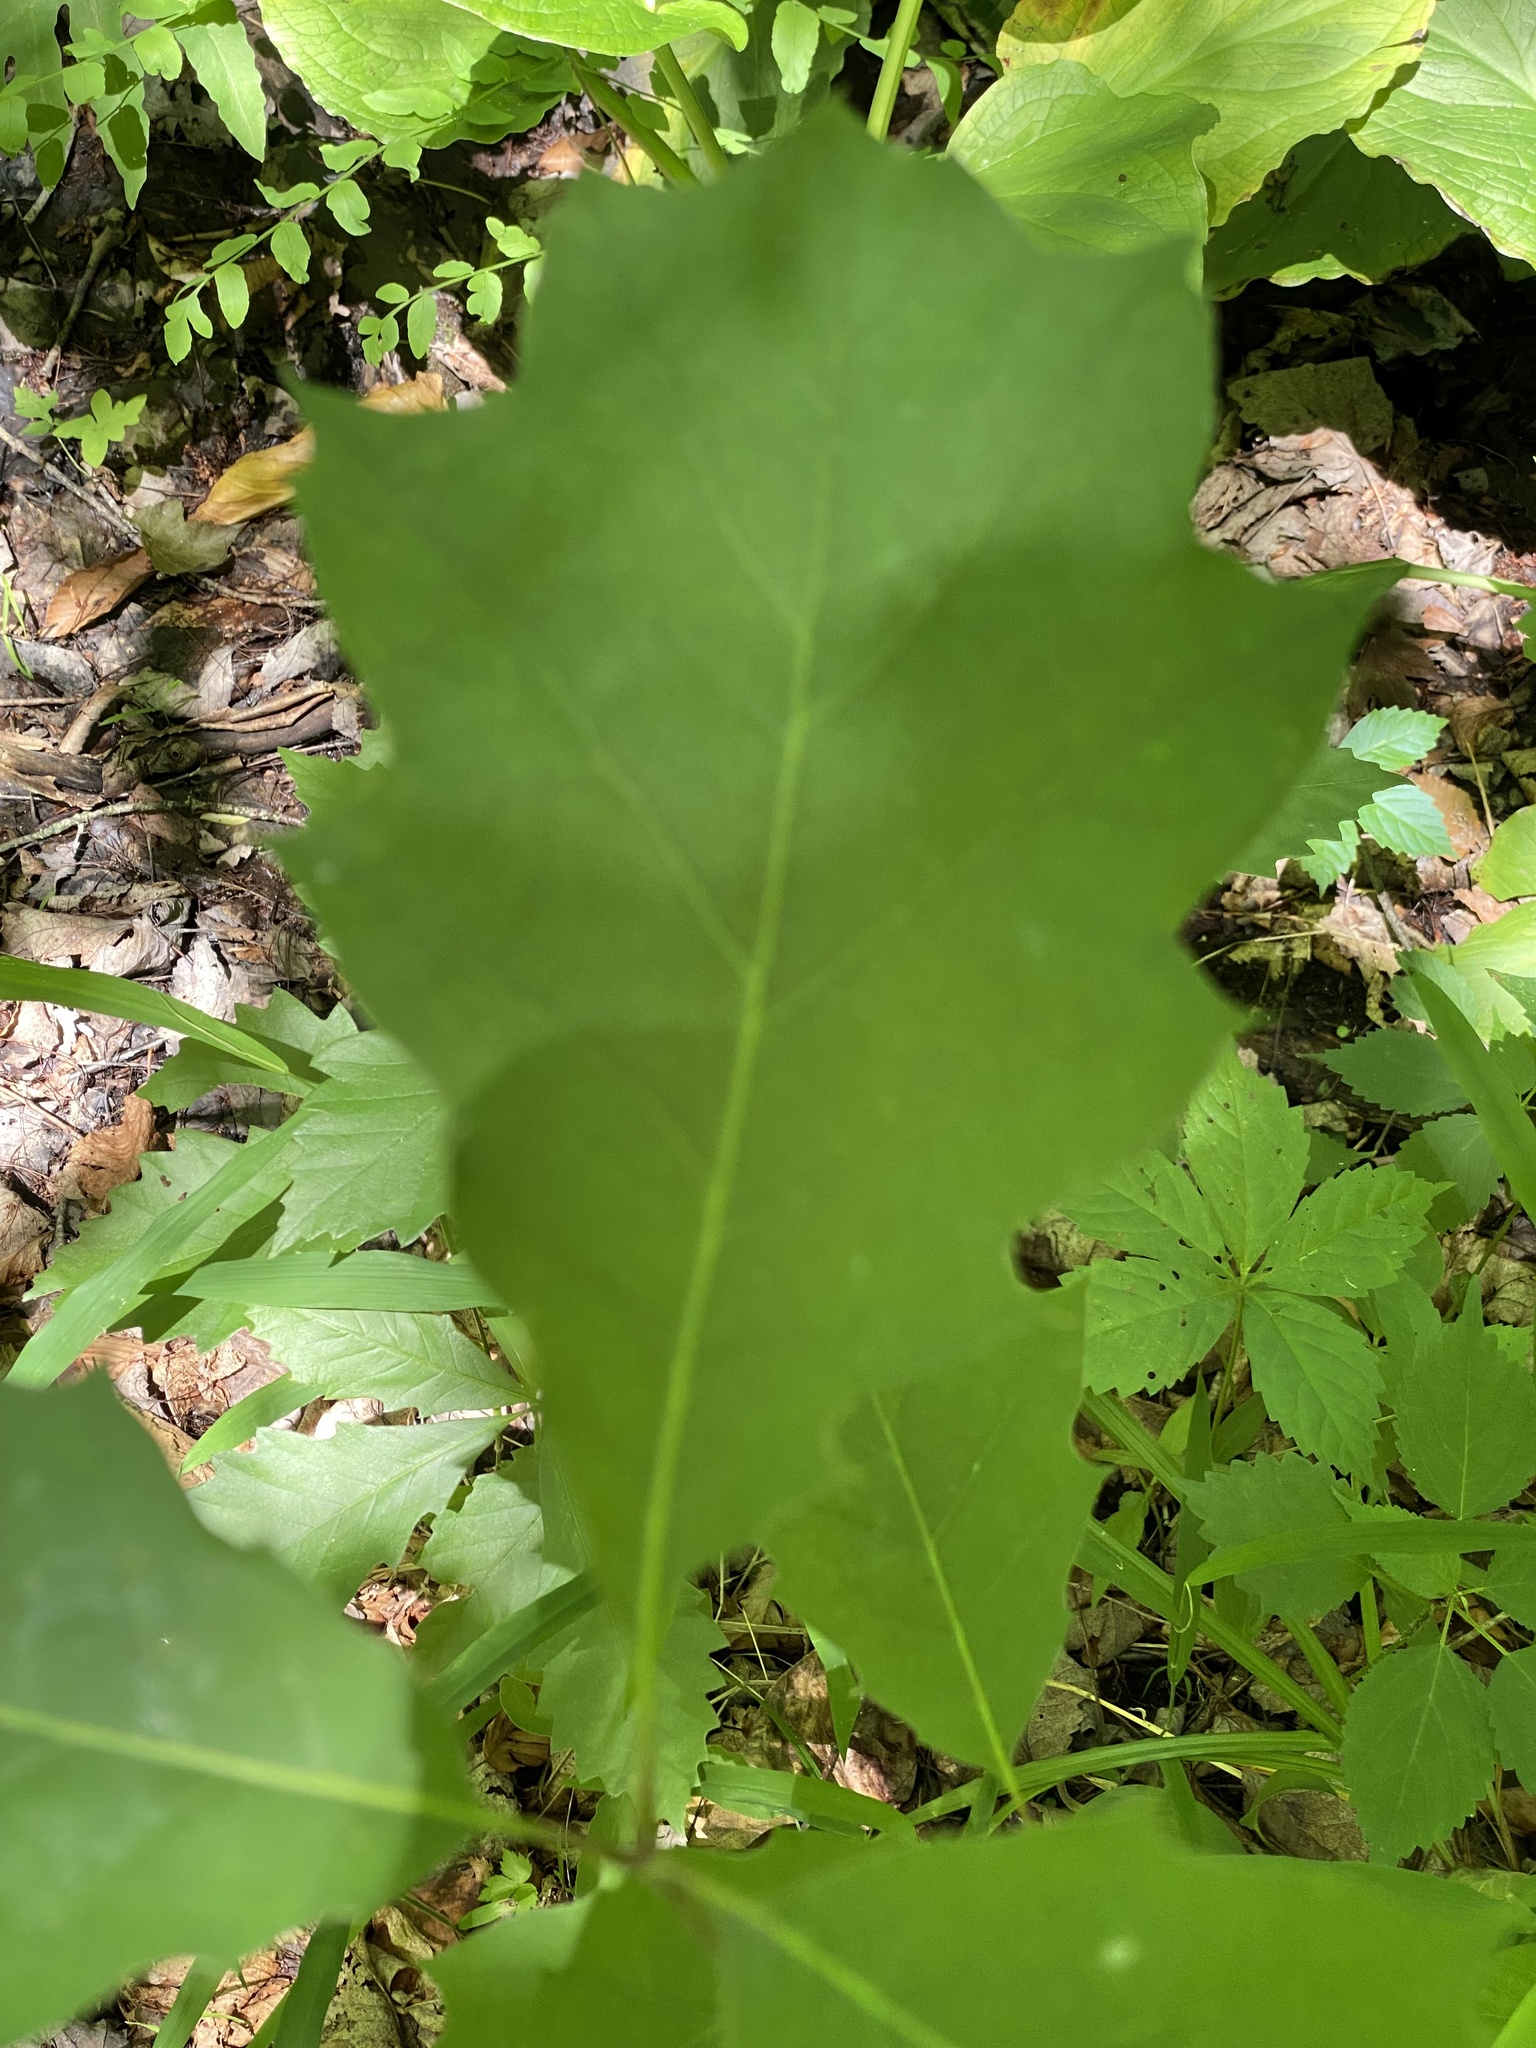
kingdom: Plantae
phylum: Tracheophyta
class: Magnoliopsida
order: Fagales
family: Fagaceae
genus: Quercus
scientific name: Quercus rubra
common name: Red oak
